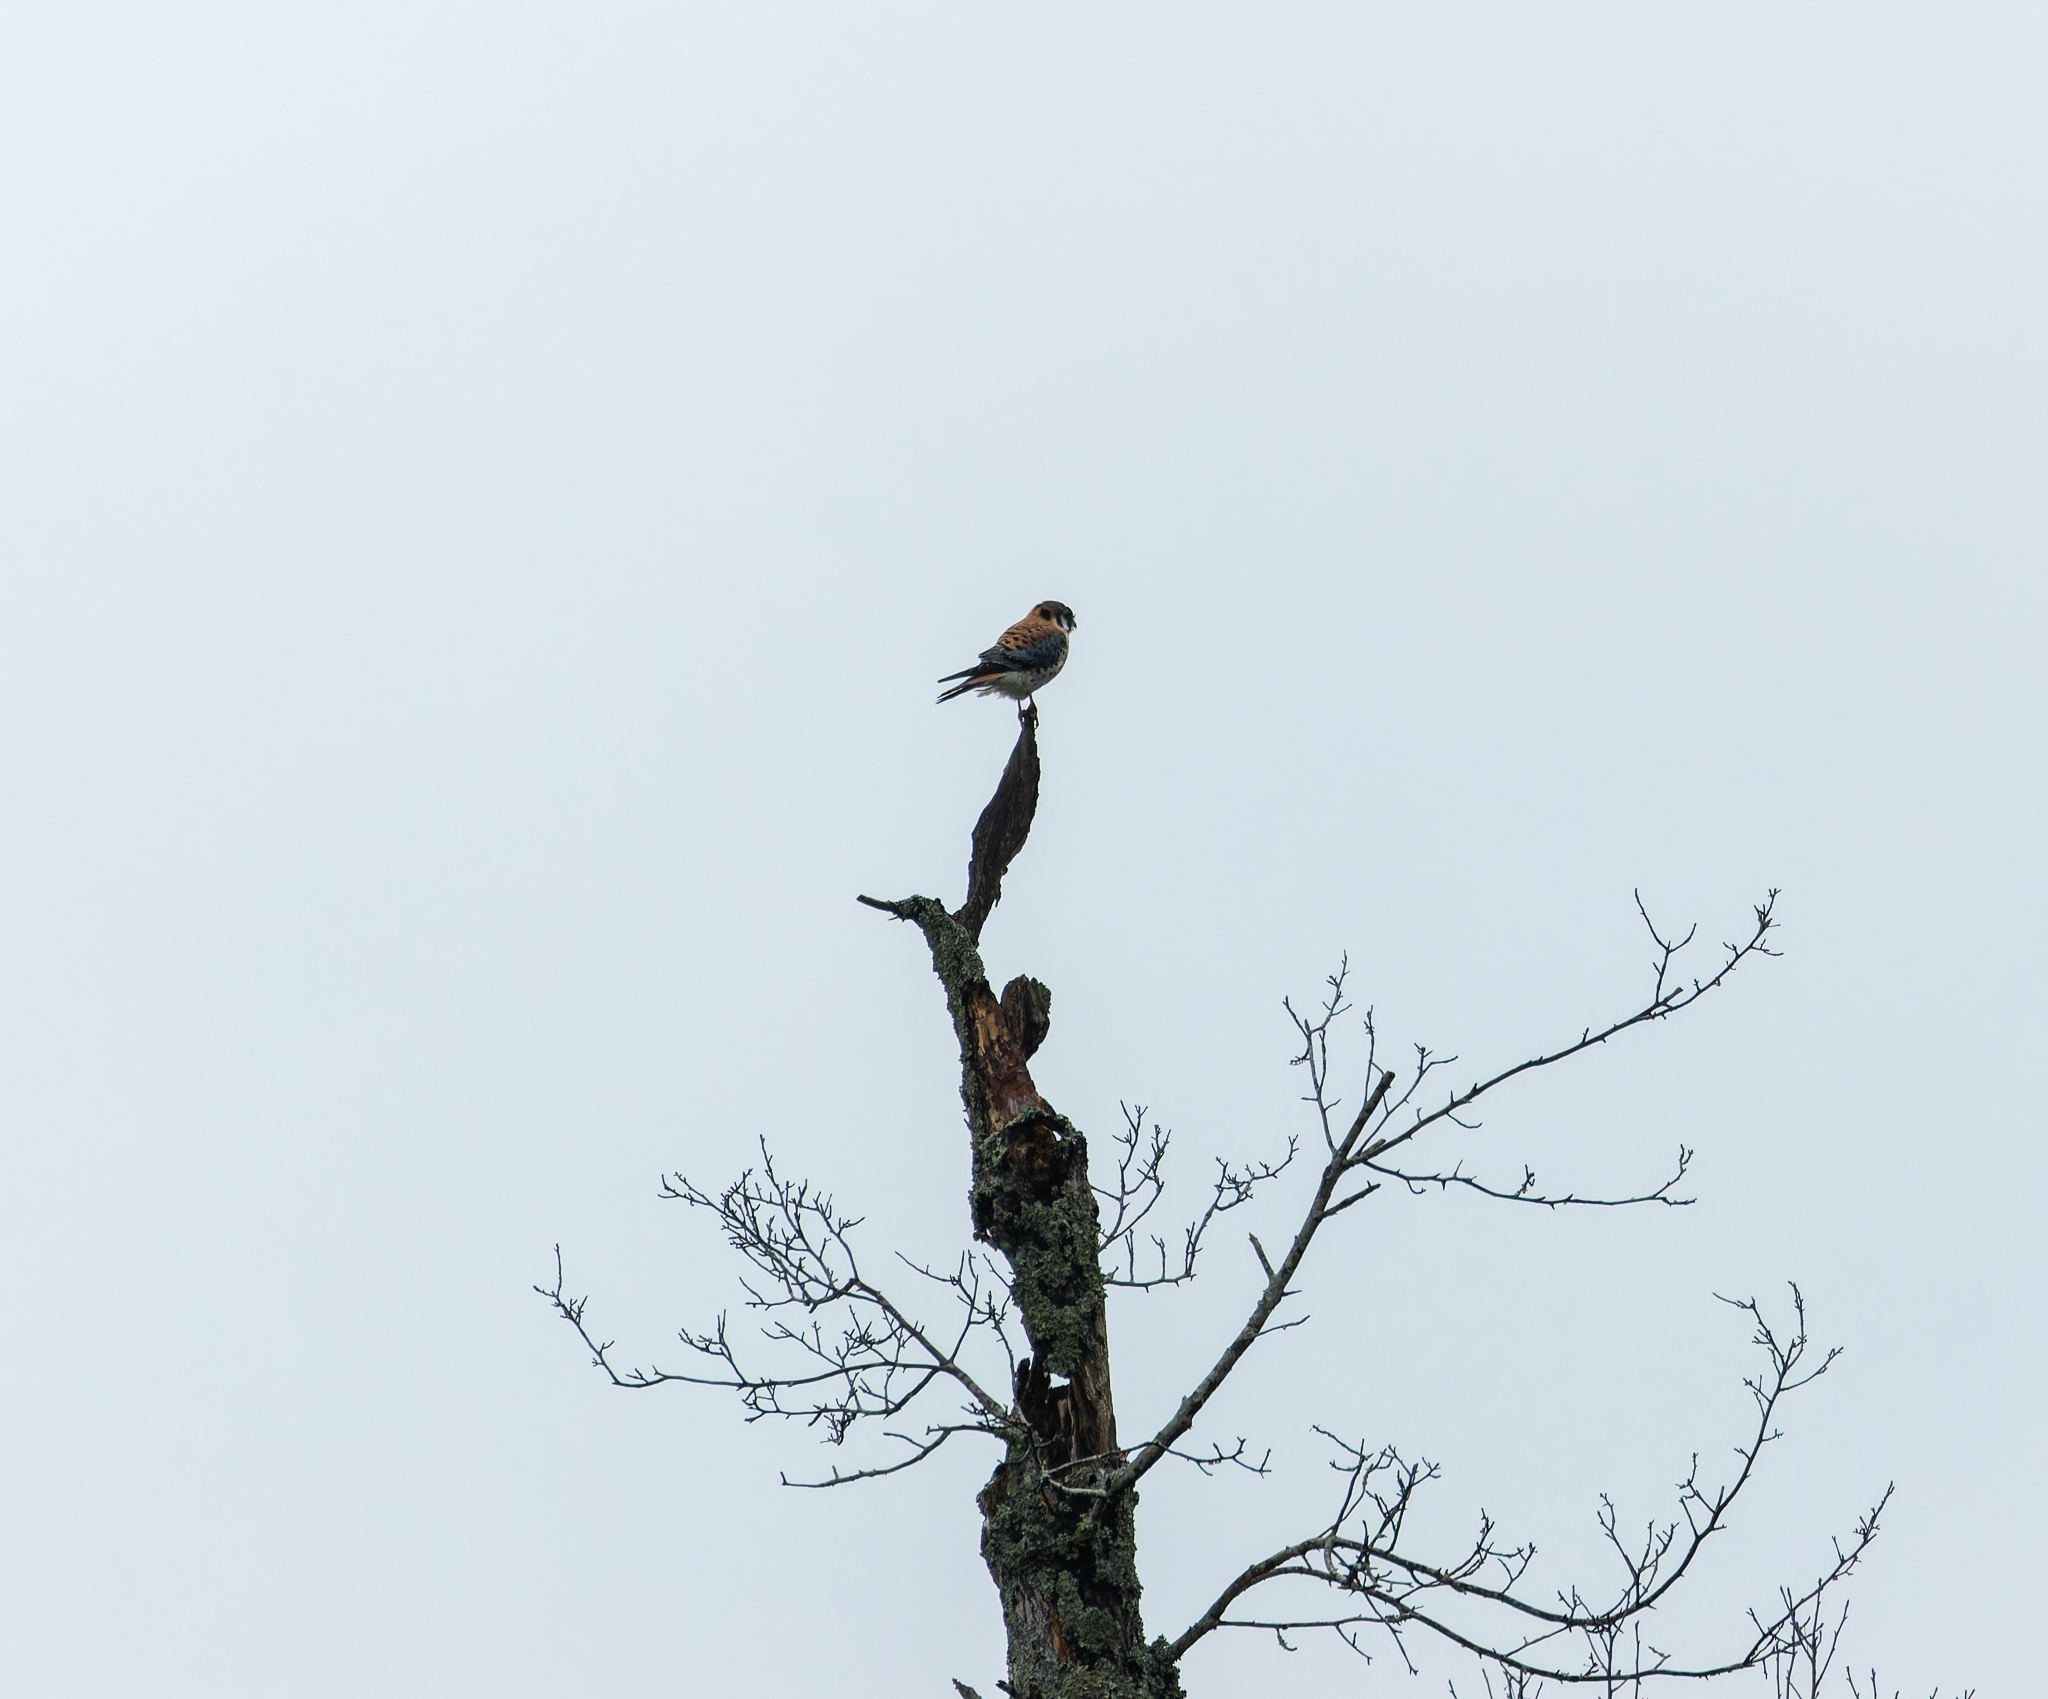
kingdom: Animalia
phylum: Chordata
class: Aves
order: Falconiformes
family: Falconidae
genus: Falco
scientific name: Falco sparverius
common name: American kestrel
